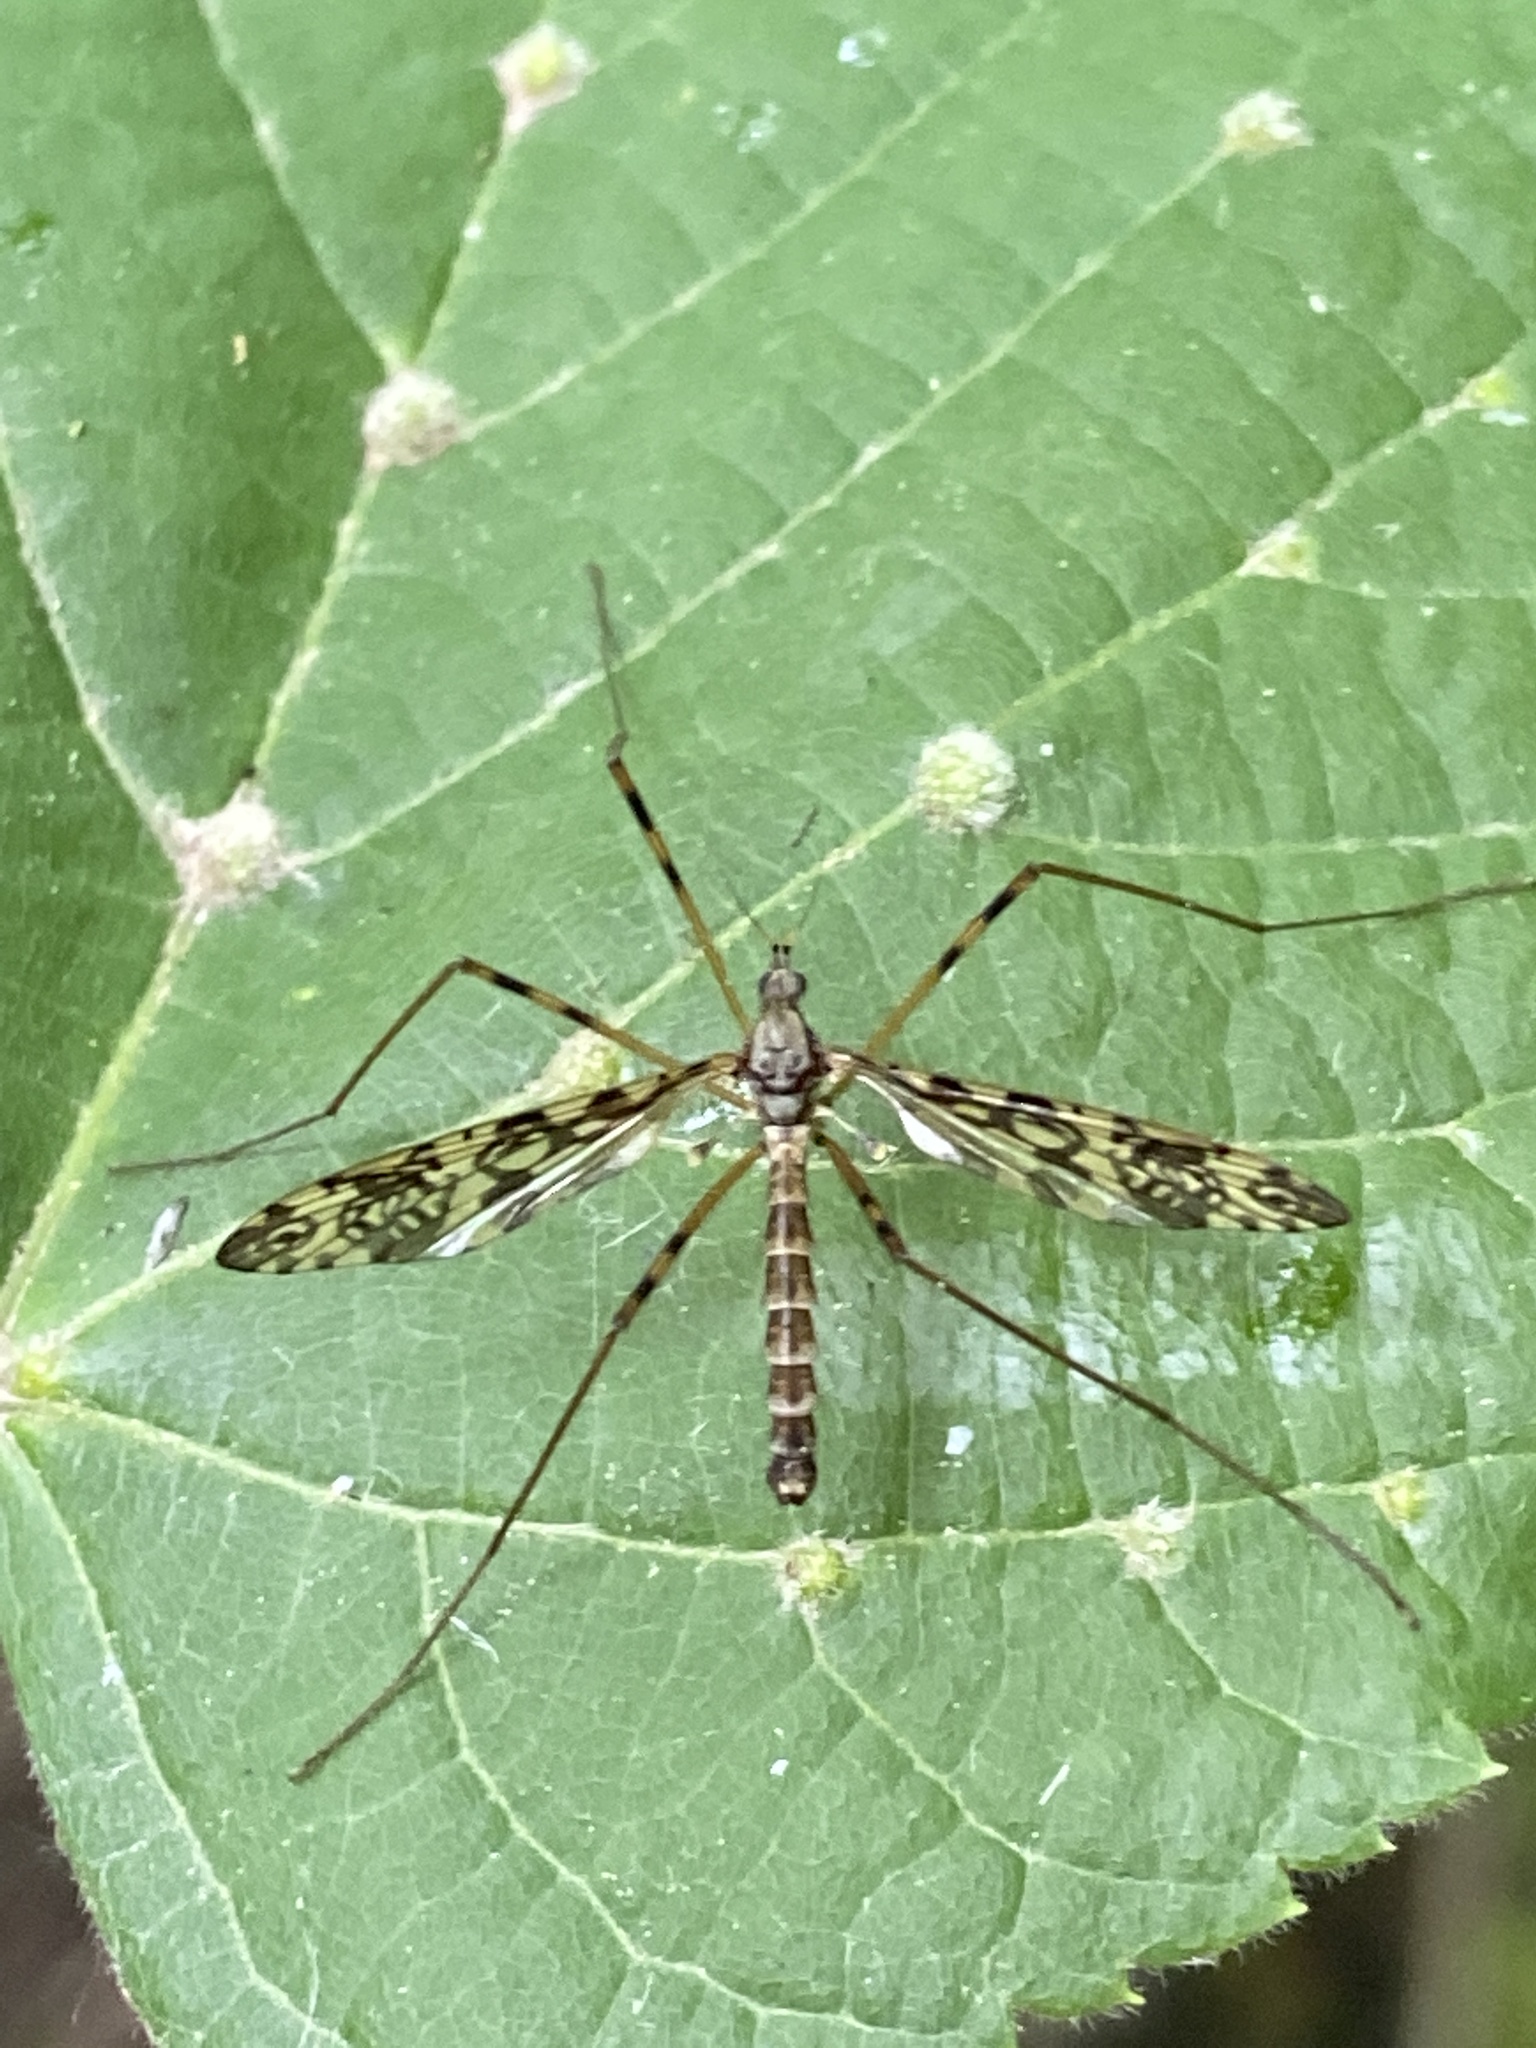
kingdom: Animalia
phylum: Arthropoda
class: Insecta
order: Diptera
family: Limoniidae
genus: Epiphragma
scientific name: Epiphragma ocellare
